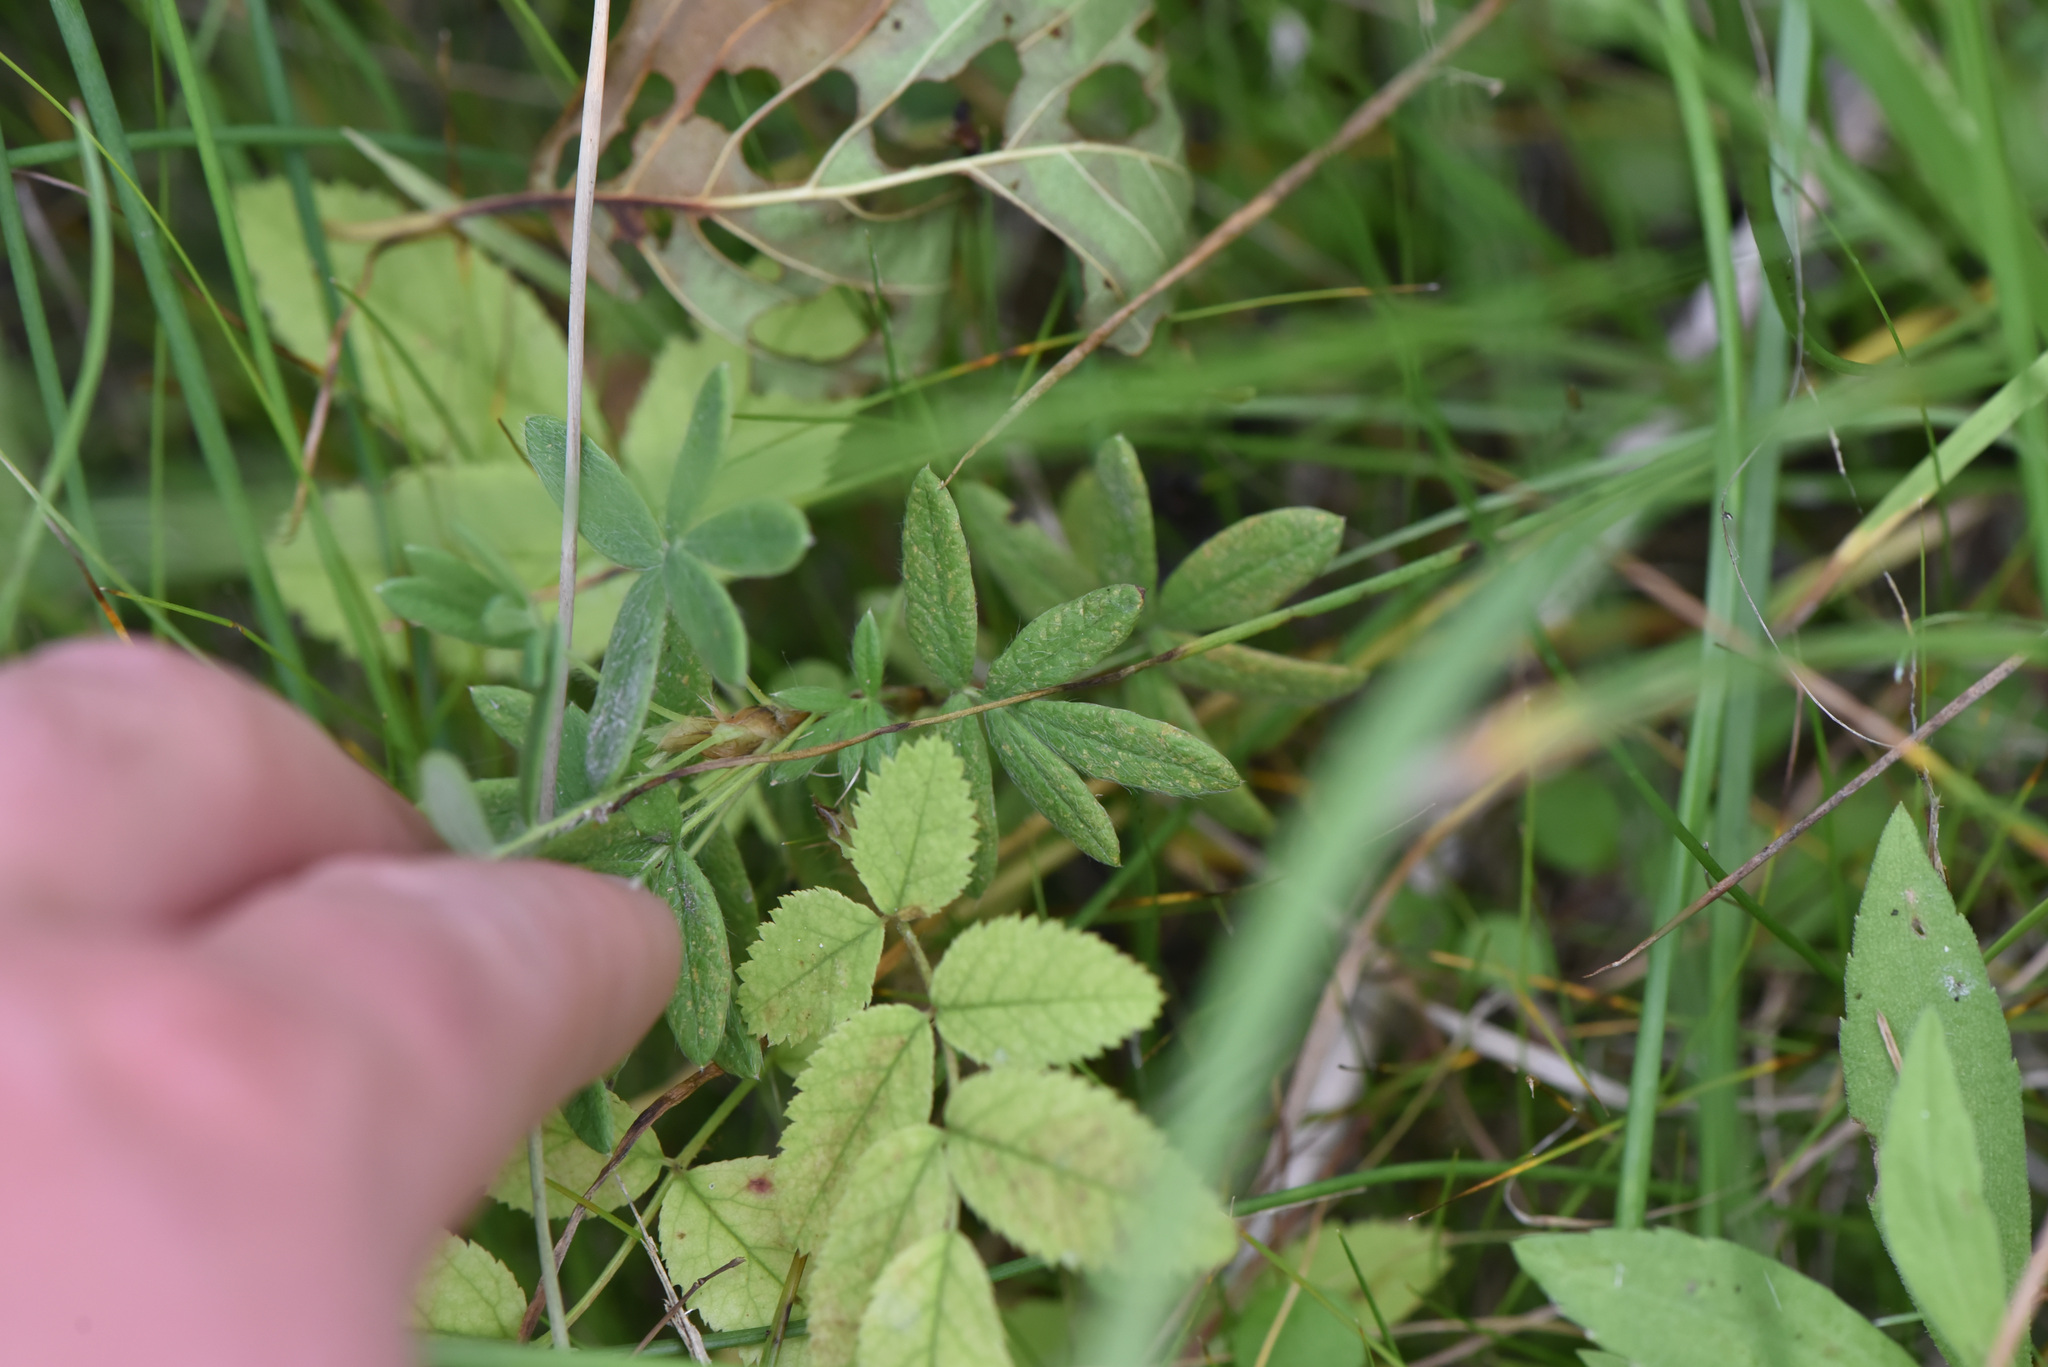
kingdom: Plantae
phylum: Tracheophyta
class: Magnoliopsida
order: Rosales
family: Rosaceae
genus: Dasiphora
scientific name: Dasiphora fruticosa
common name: Shrubby cinquefoil
